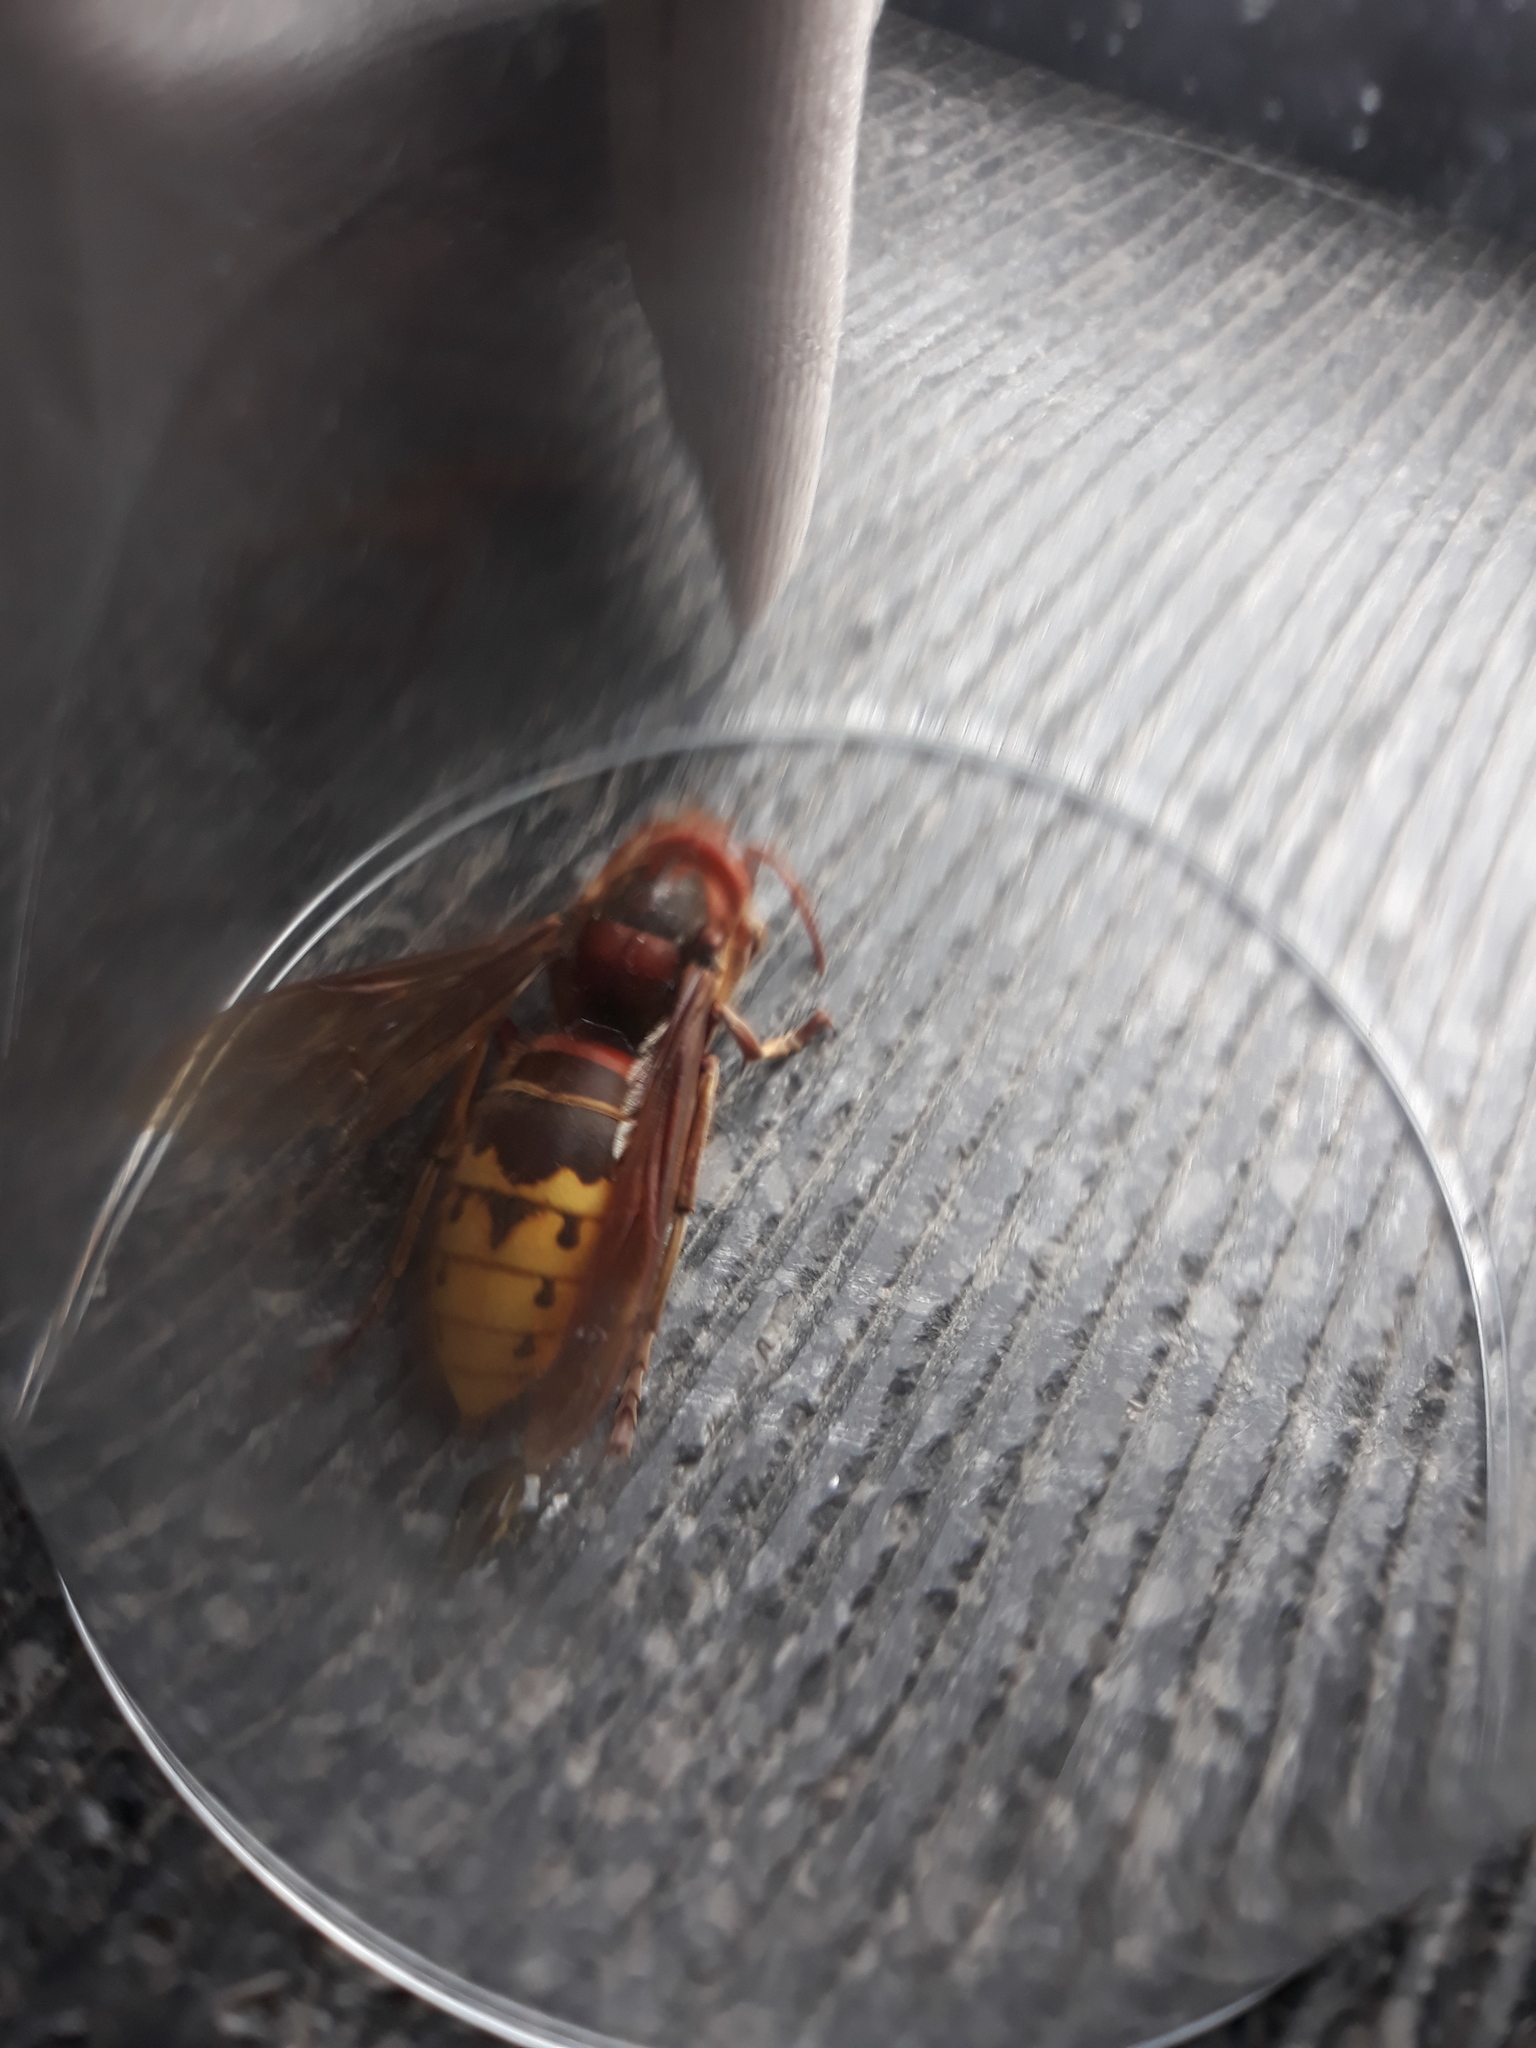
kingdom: Animalia
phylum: Arthropoda
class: Insecta
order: Hymenoptera
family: Vespidae
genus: Vespa
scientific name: Vespa crabro
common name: Hornet
